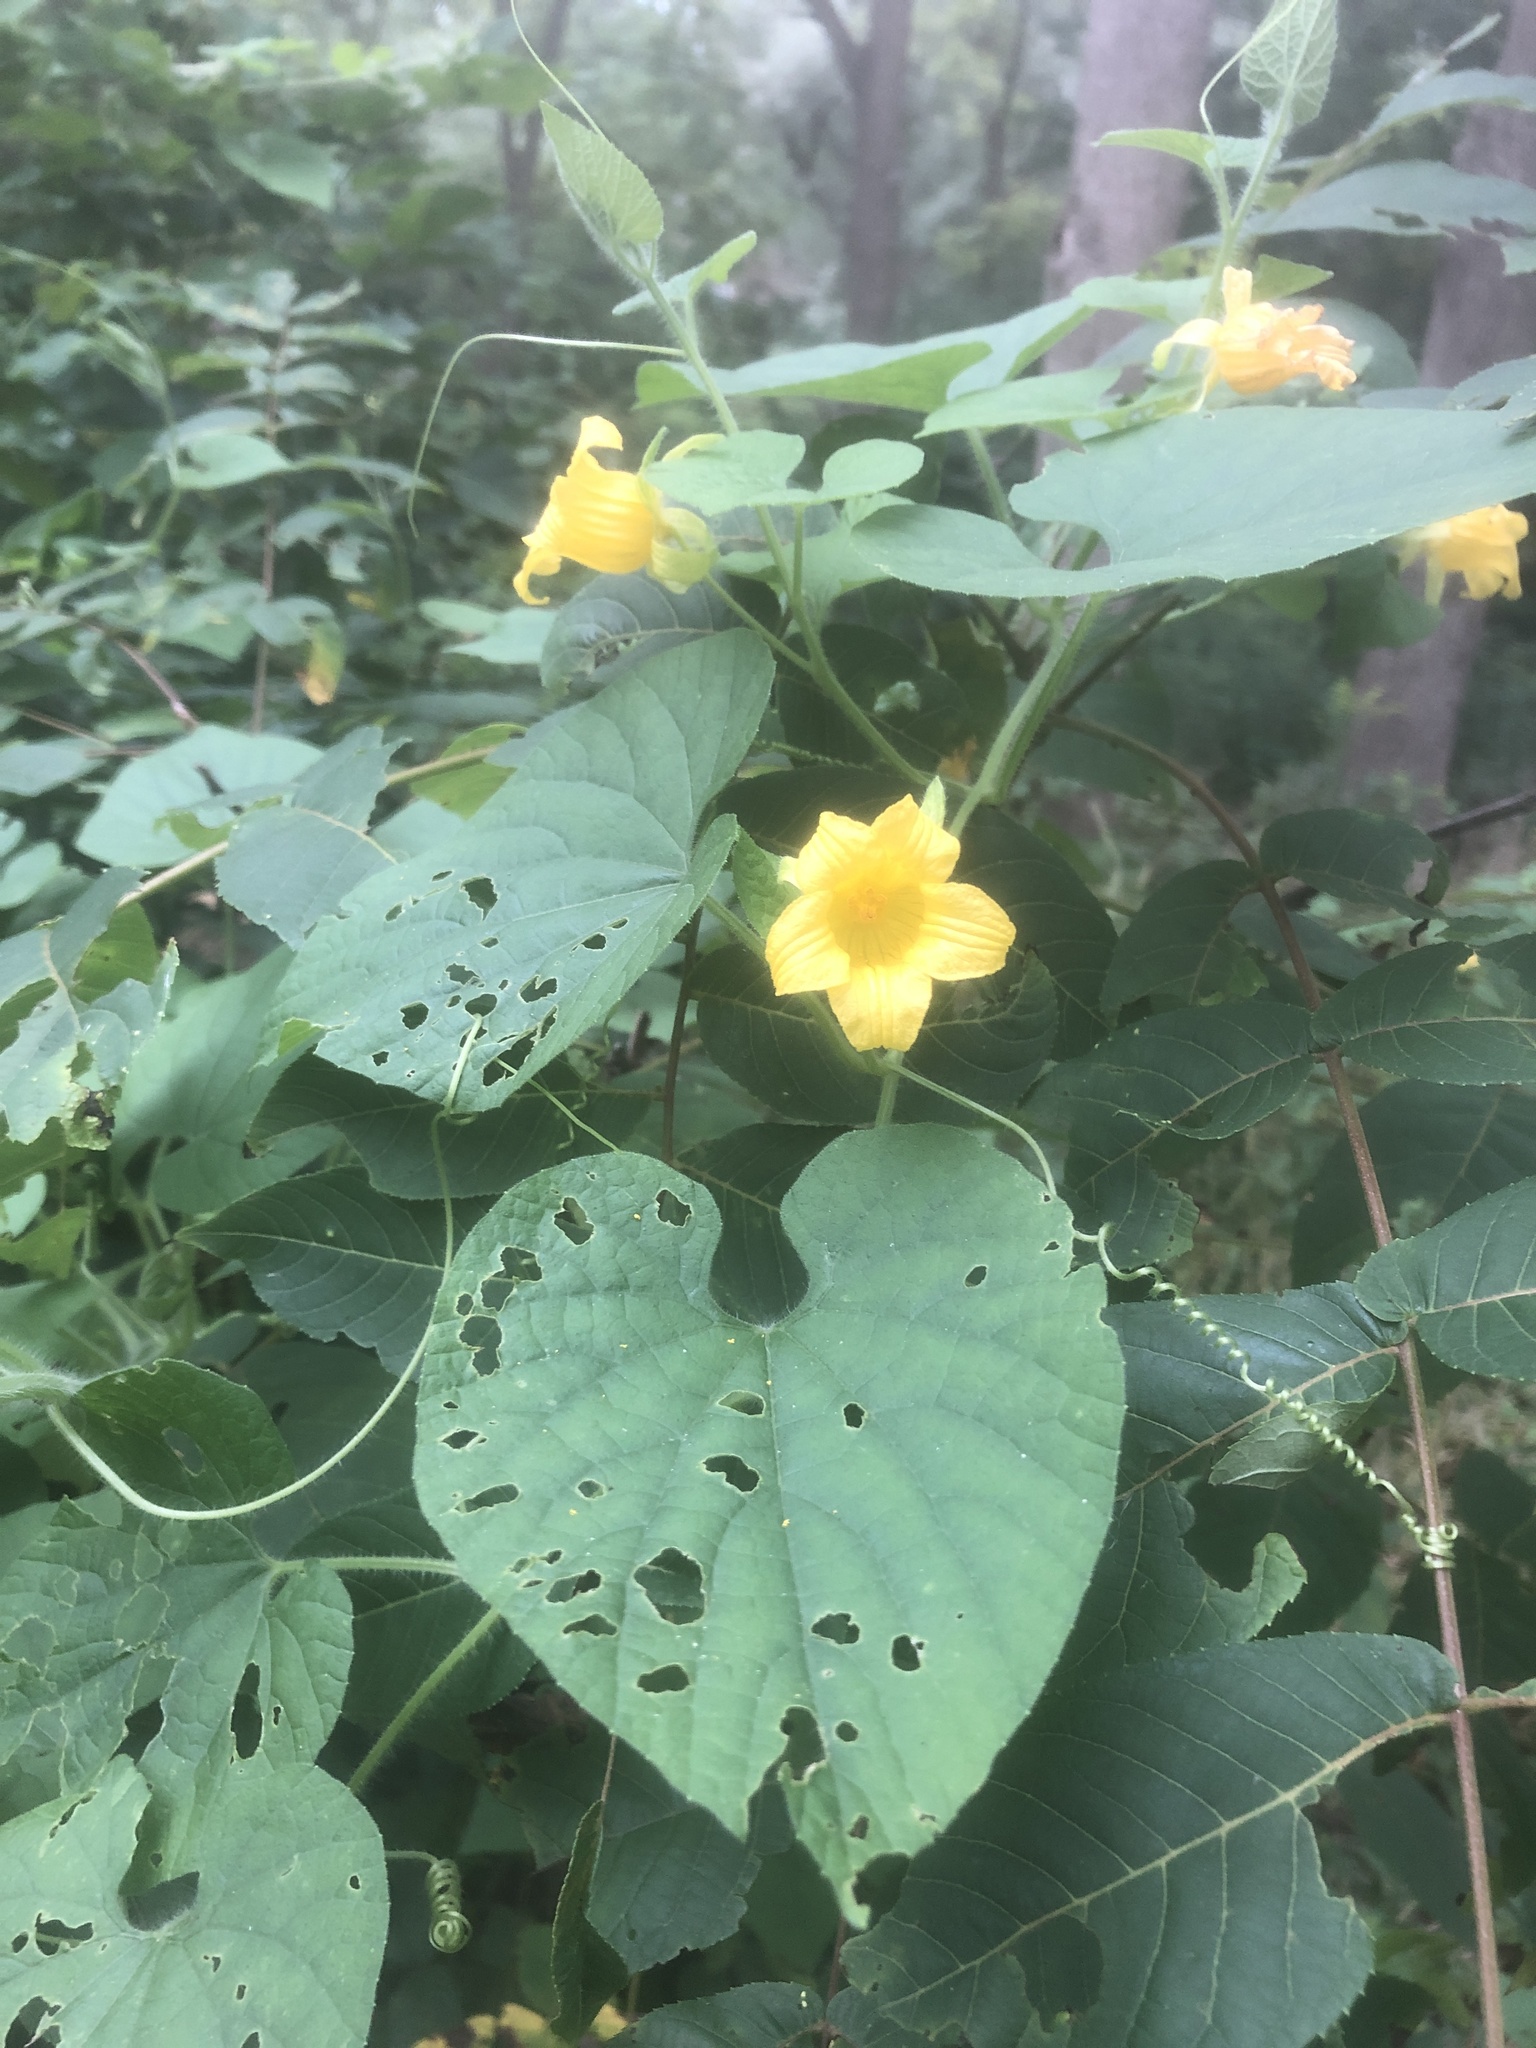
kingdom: Plantae
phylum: Tracheophyta
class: Magnoliopsida
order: Cucurbitales
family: Cucurbitaceae
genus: Thladiantha
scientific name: Thladiantha dubia
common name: Manchu tubergourd
